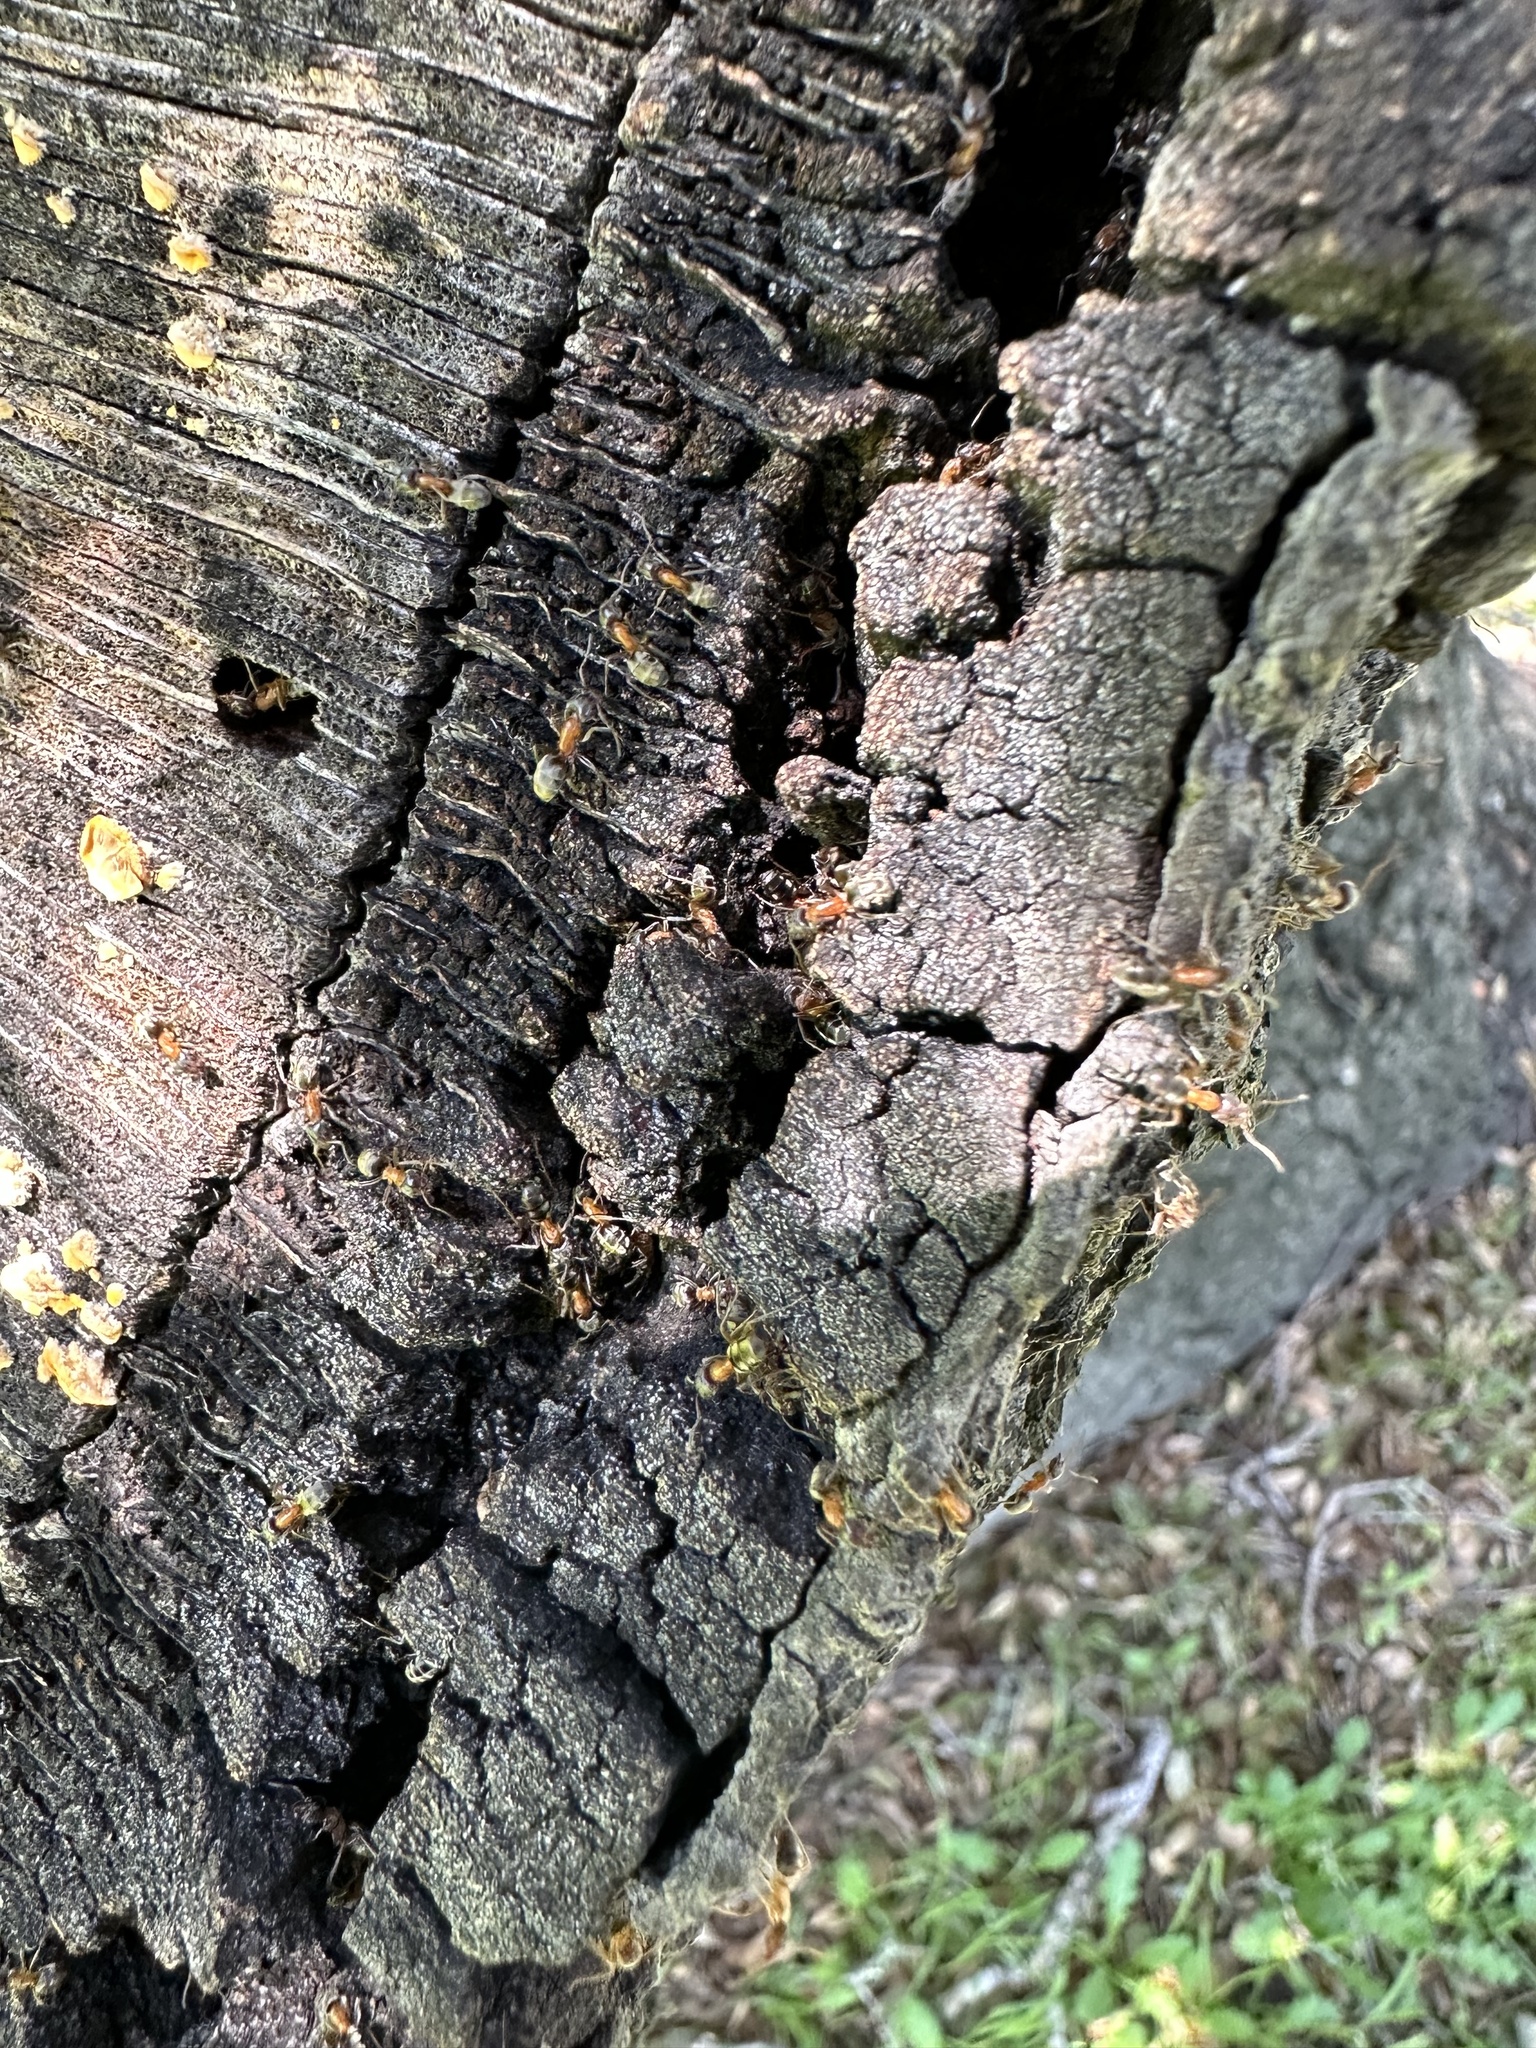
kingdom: Animalia
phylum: Arthropoda
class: Insecta
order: Hymenoptera
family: Formicidae
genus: Liometopum
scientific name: Liometopum occidentale
